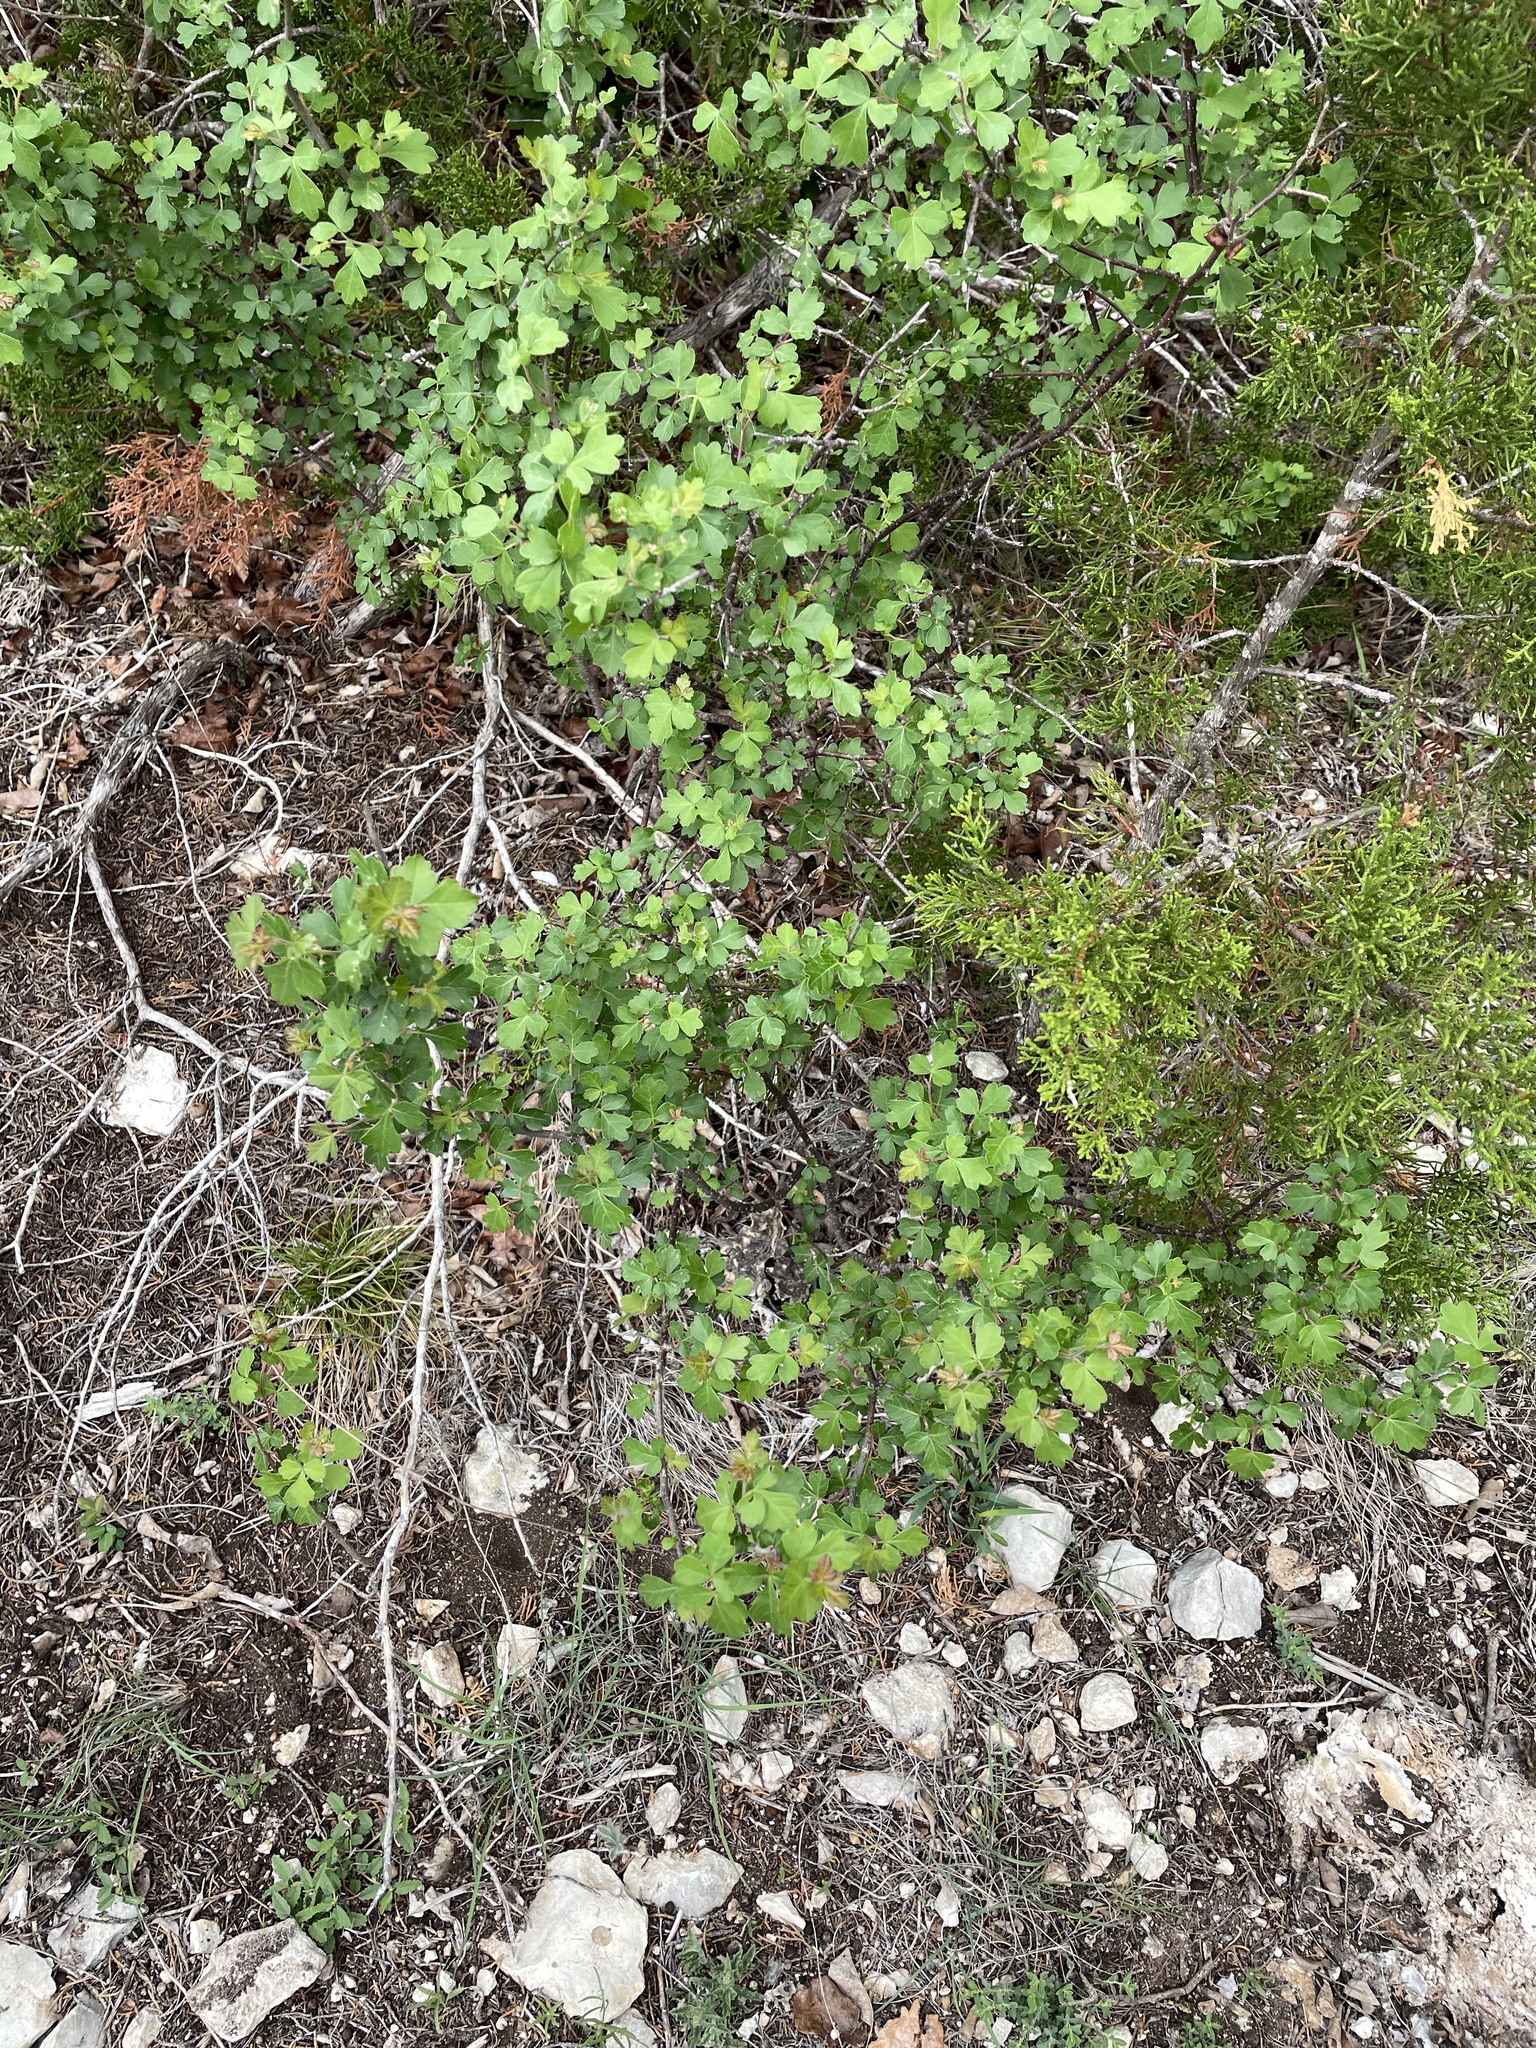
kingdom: Plantae
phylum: Tracheophyta
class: Magnoliopsida
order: Sapindales
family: Anacardiaceae
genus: Rhus
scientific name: Rhus aromatica
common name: Aromatic sumac
